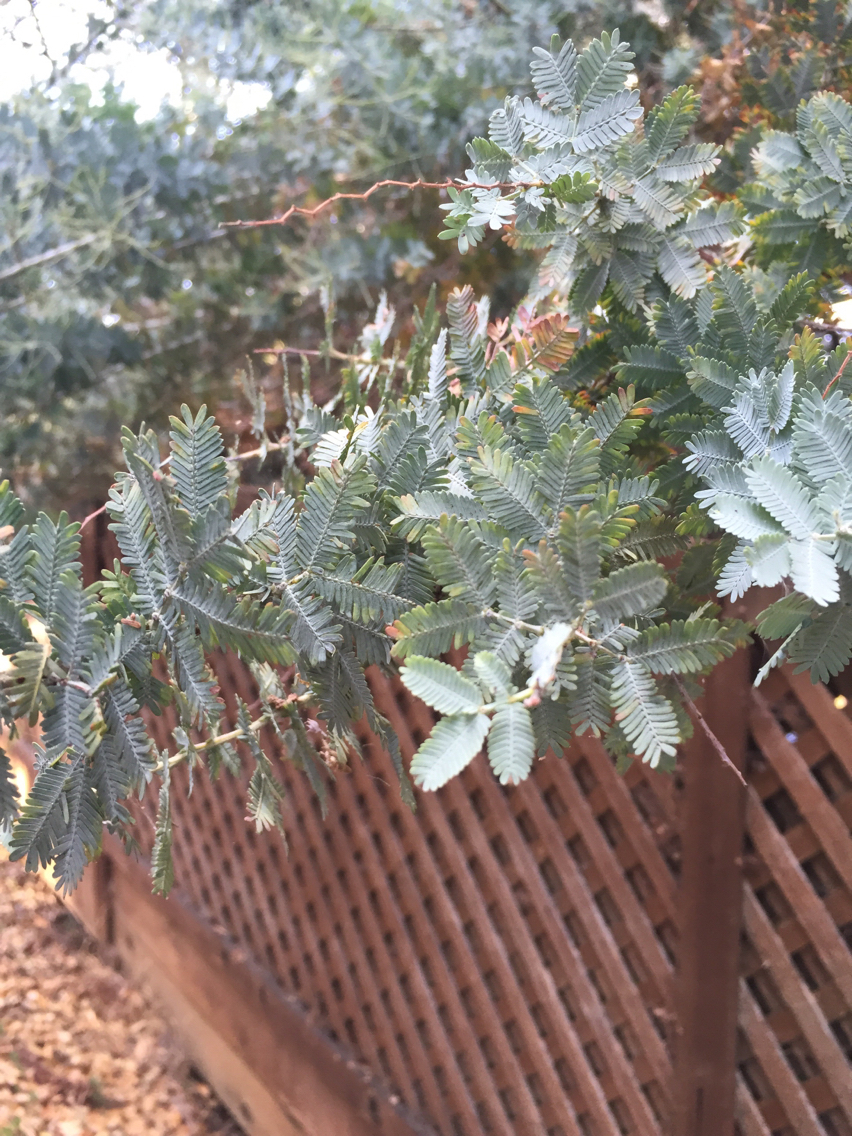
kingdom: Plantae
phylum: Tracheophyta
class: Magnoliopsida
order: Fabales
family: Fabaceae
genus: Acacia
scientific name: Acacia baileyana
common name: Cootamundra wattle
